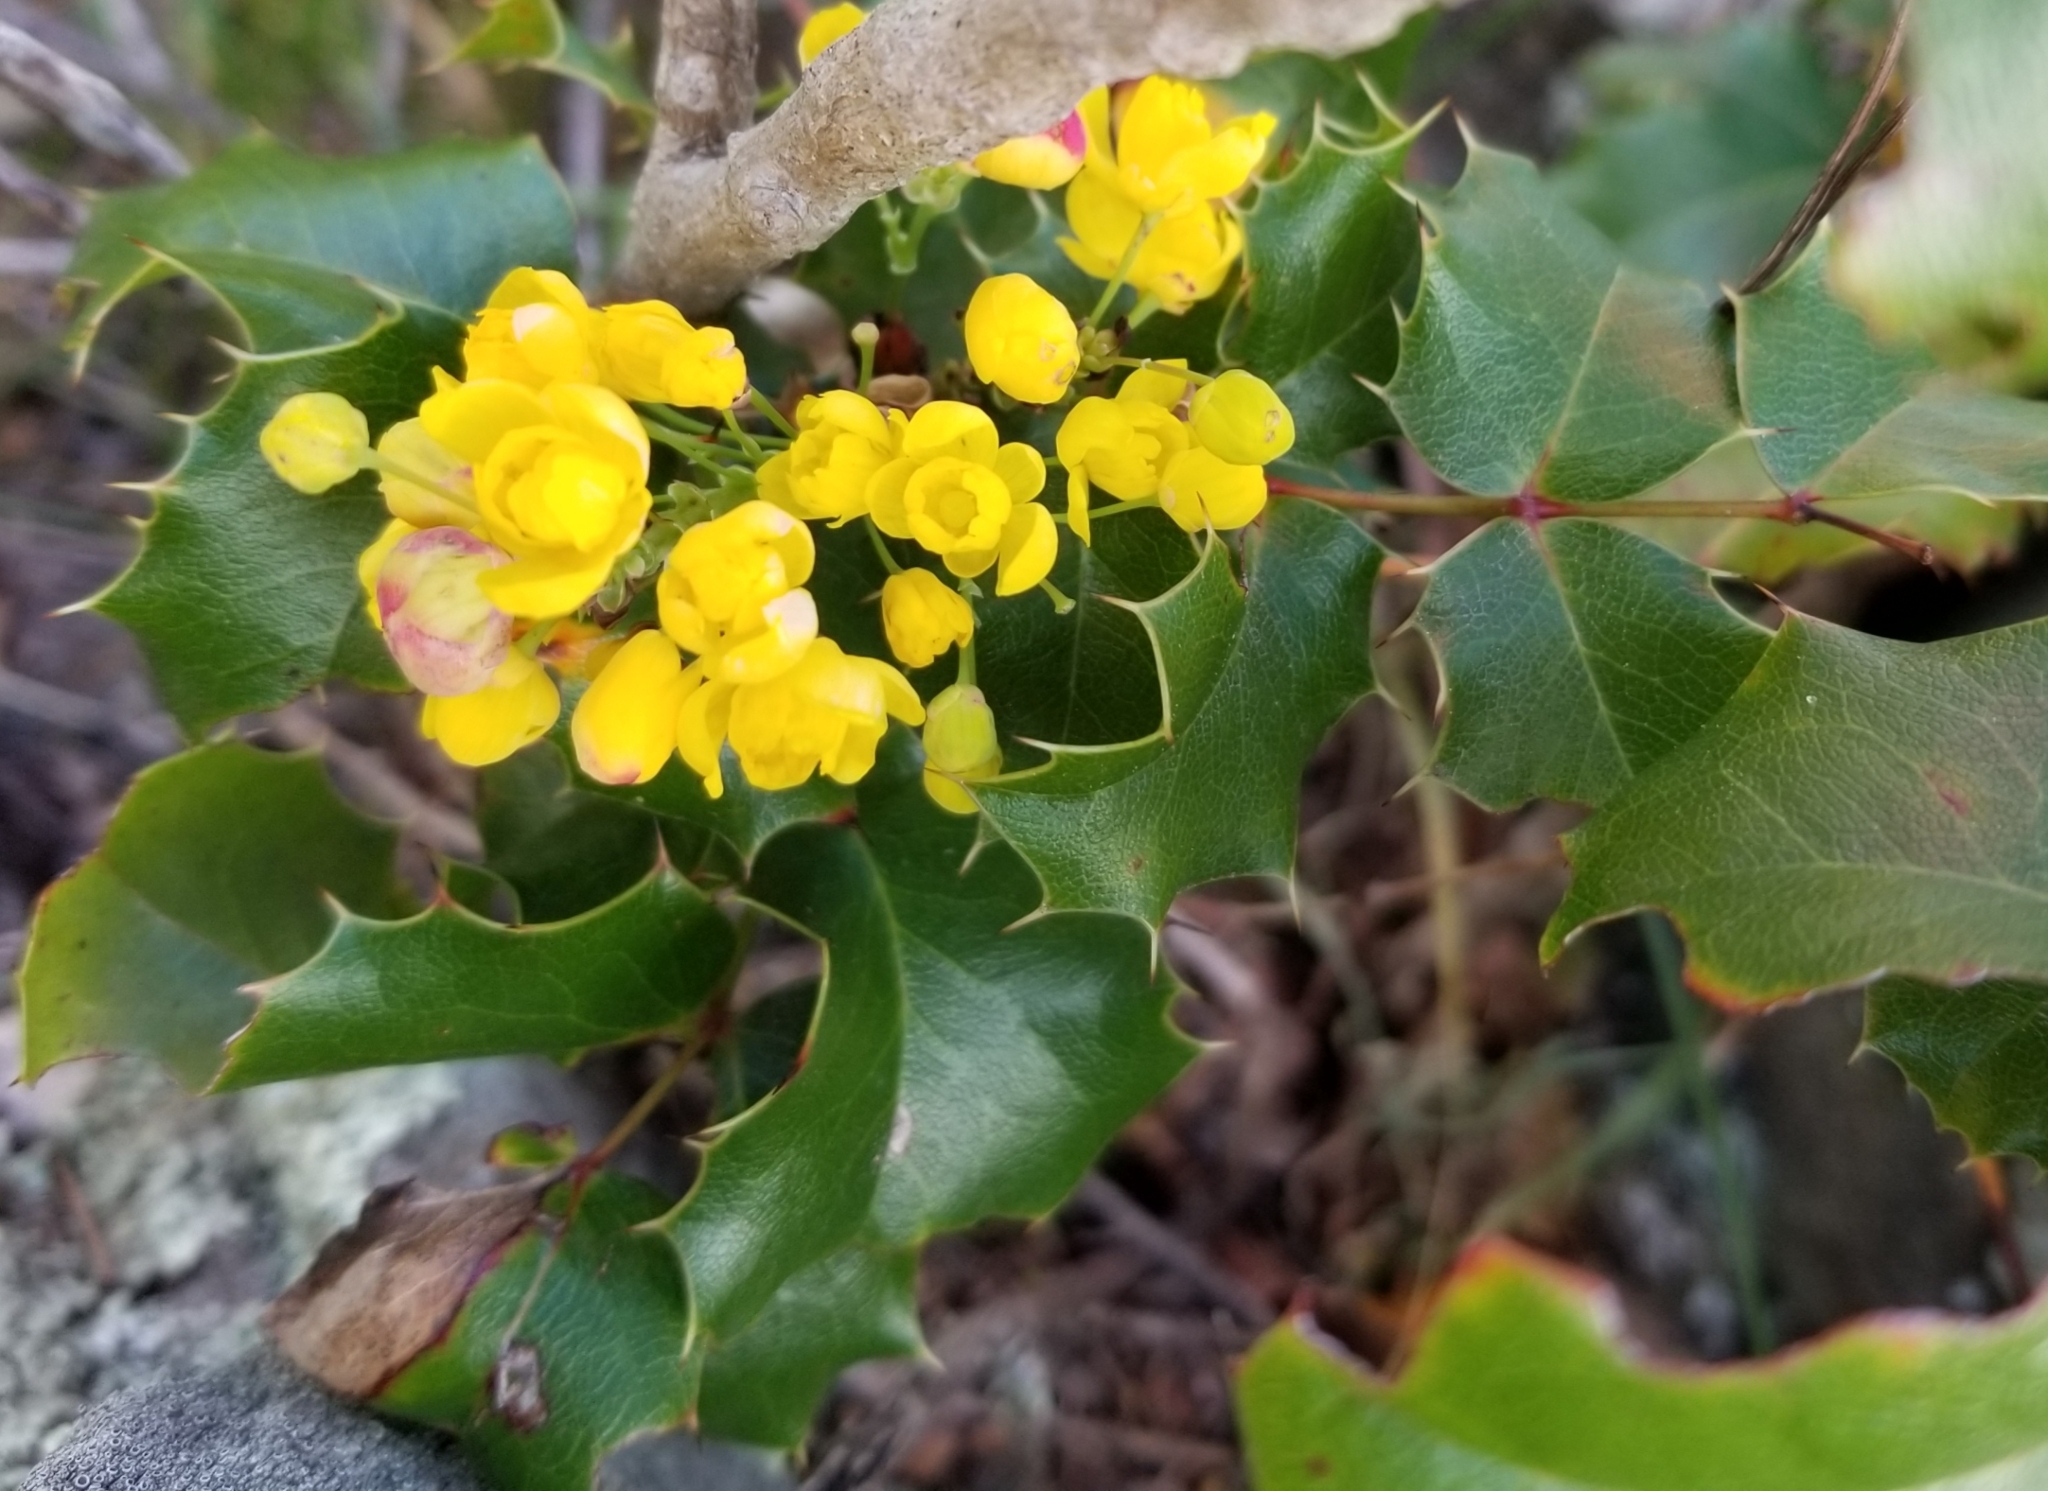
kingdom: Plantae
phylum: Tracheophyta
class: Magnoliopsida
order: Ranunculales
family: Berberidaceae
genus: Mahonia
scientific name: Mahonia
